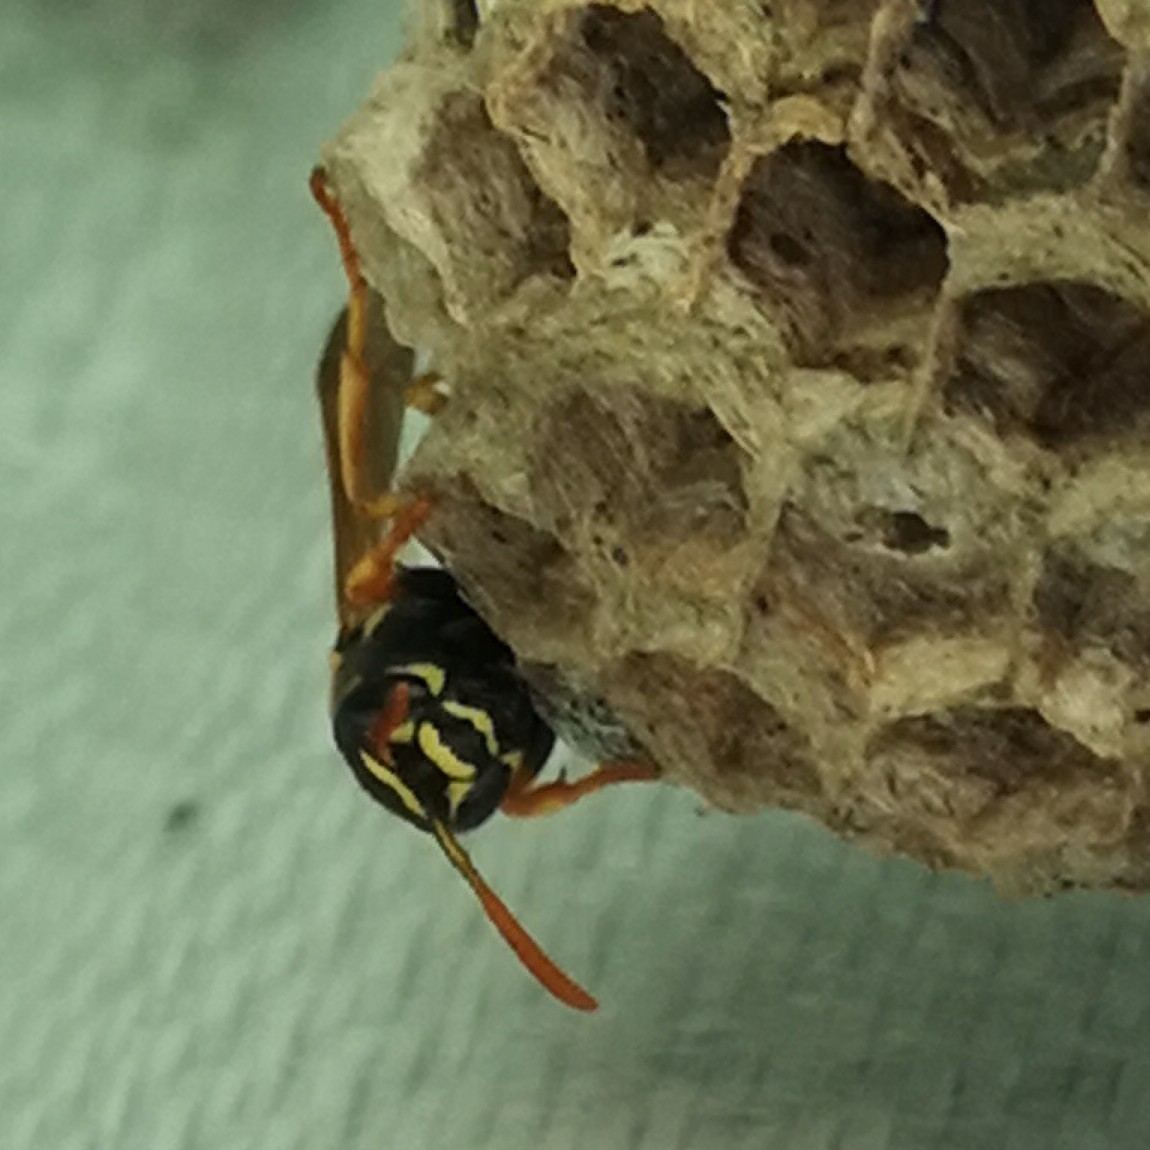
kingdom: Animalia
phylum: Arthropoda
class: Insecta
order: Hymenoptera
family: Eumenidae
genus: Polistes
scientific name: Polistes nimpha
